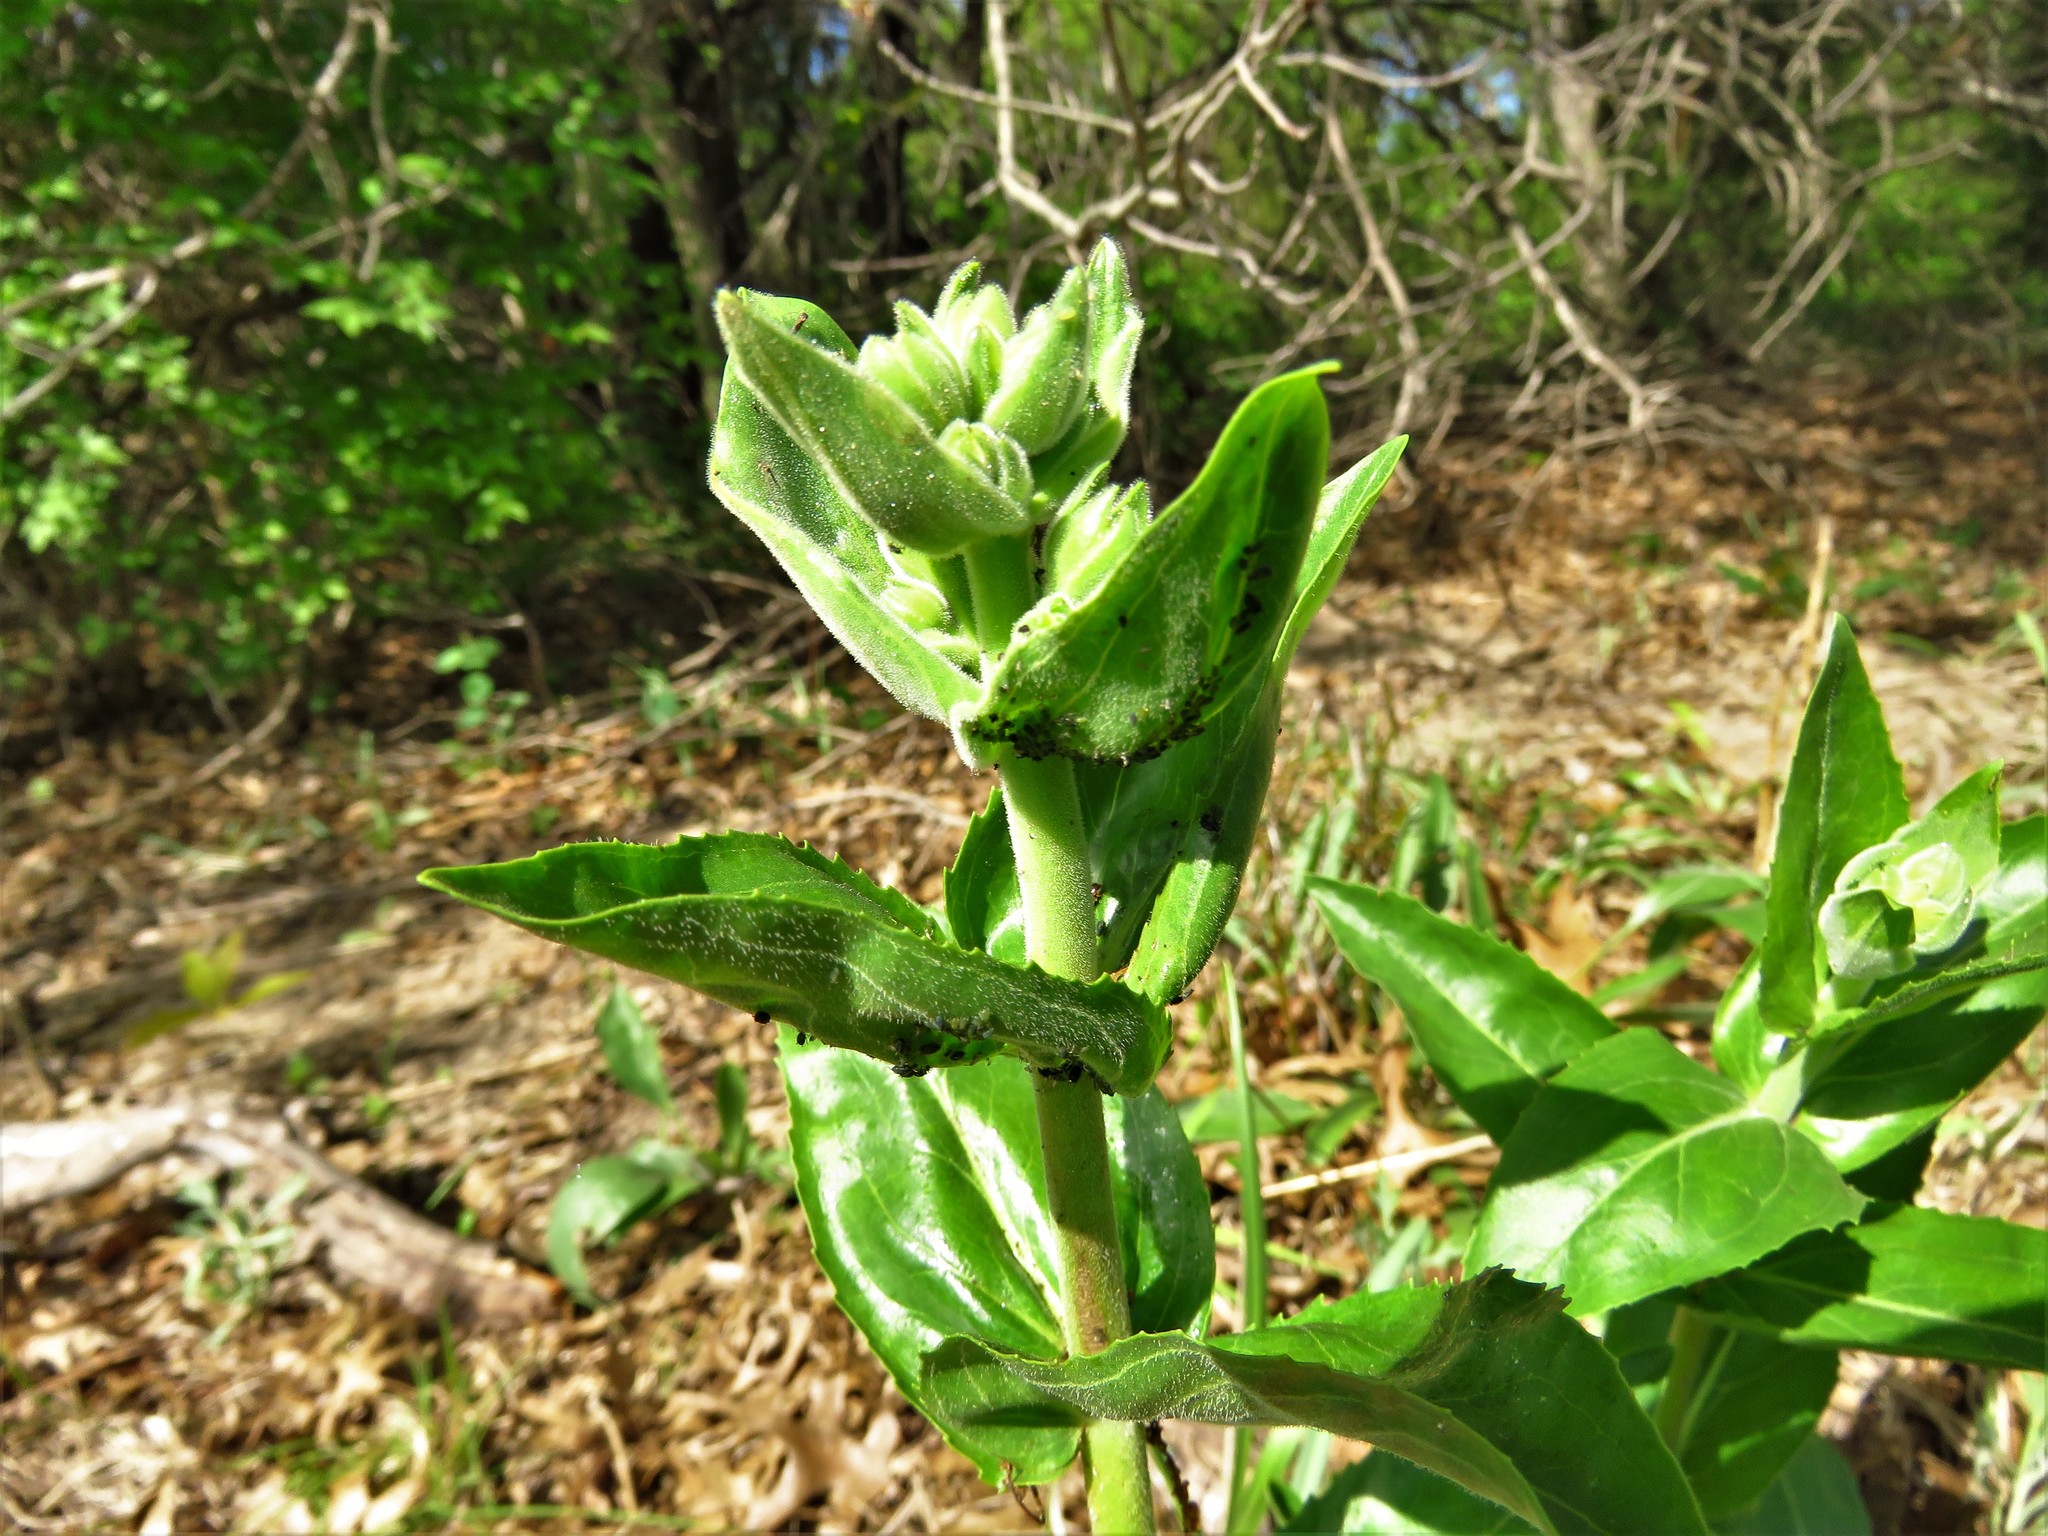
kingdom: Plantae
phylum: Tracheophyta
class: Magnoliopsida
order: Lamiales
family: Plantaginaceae
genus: Penstemon
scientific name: Penstemon cobaea
